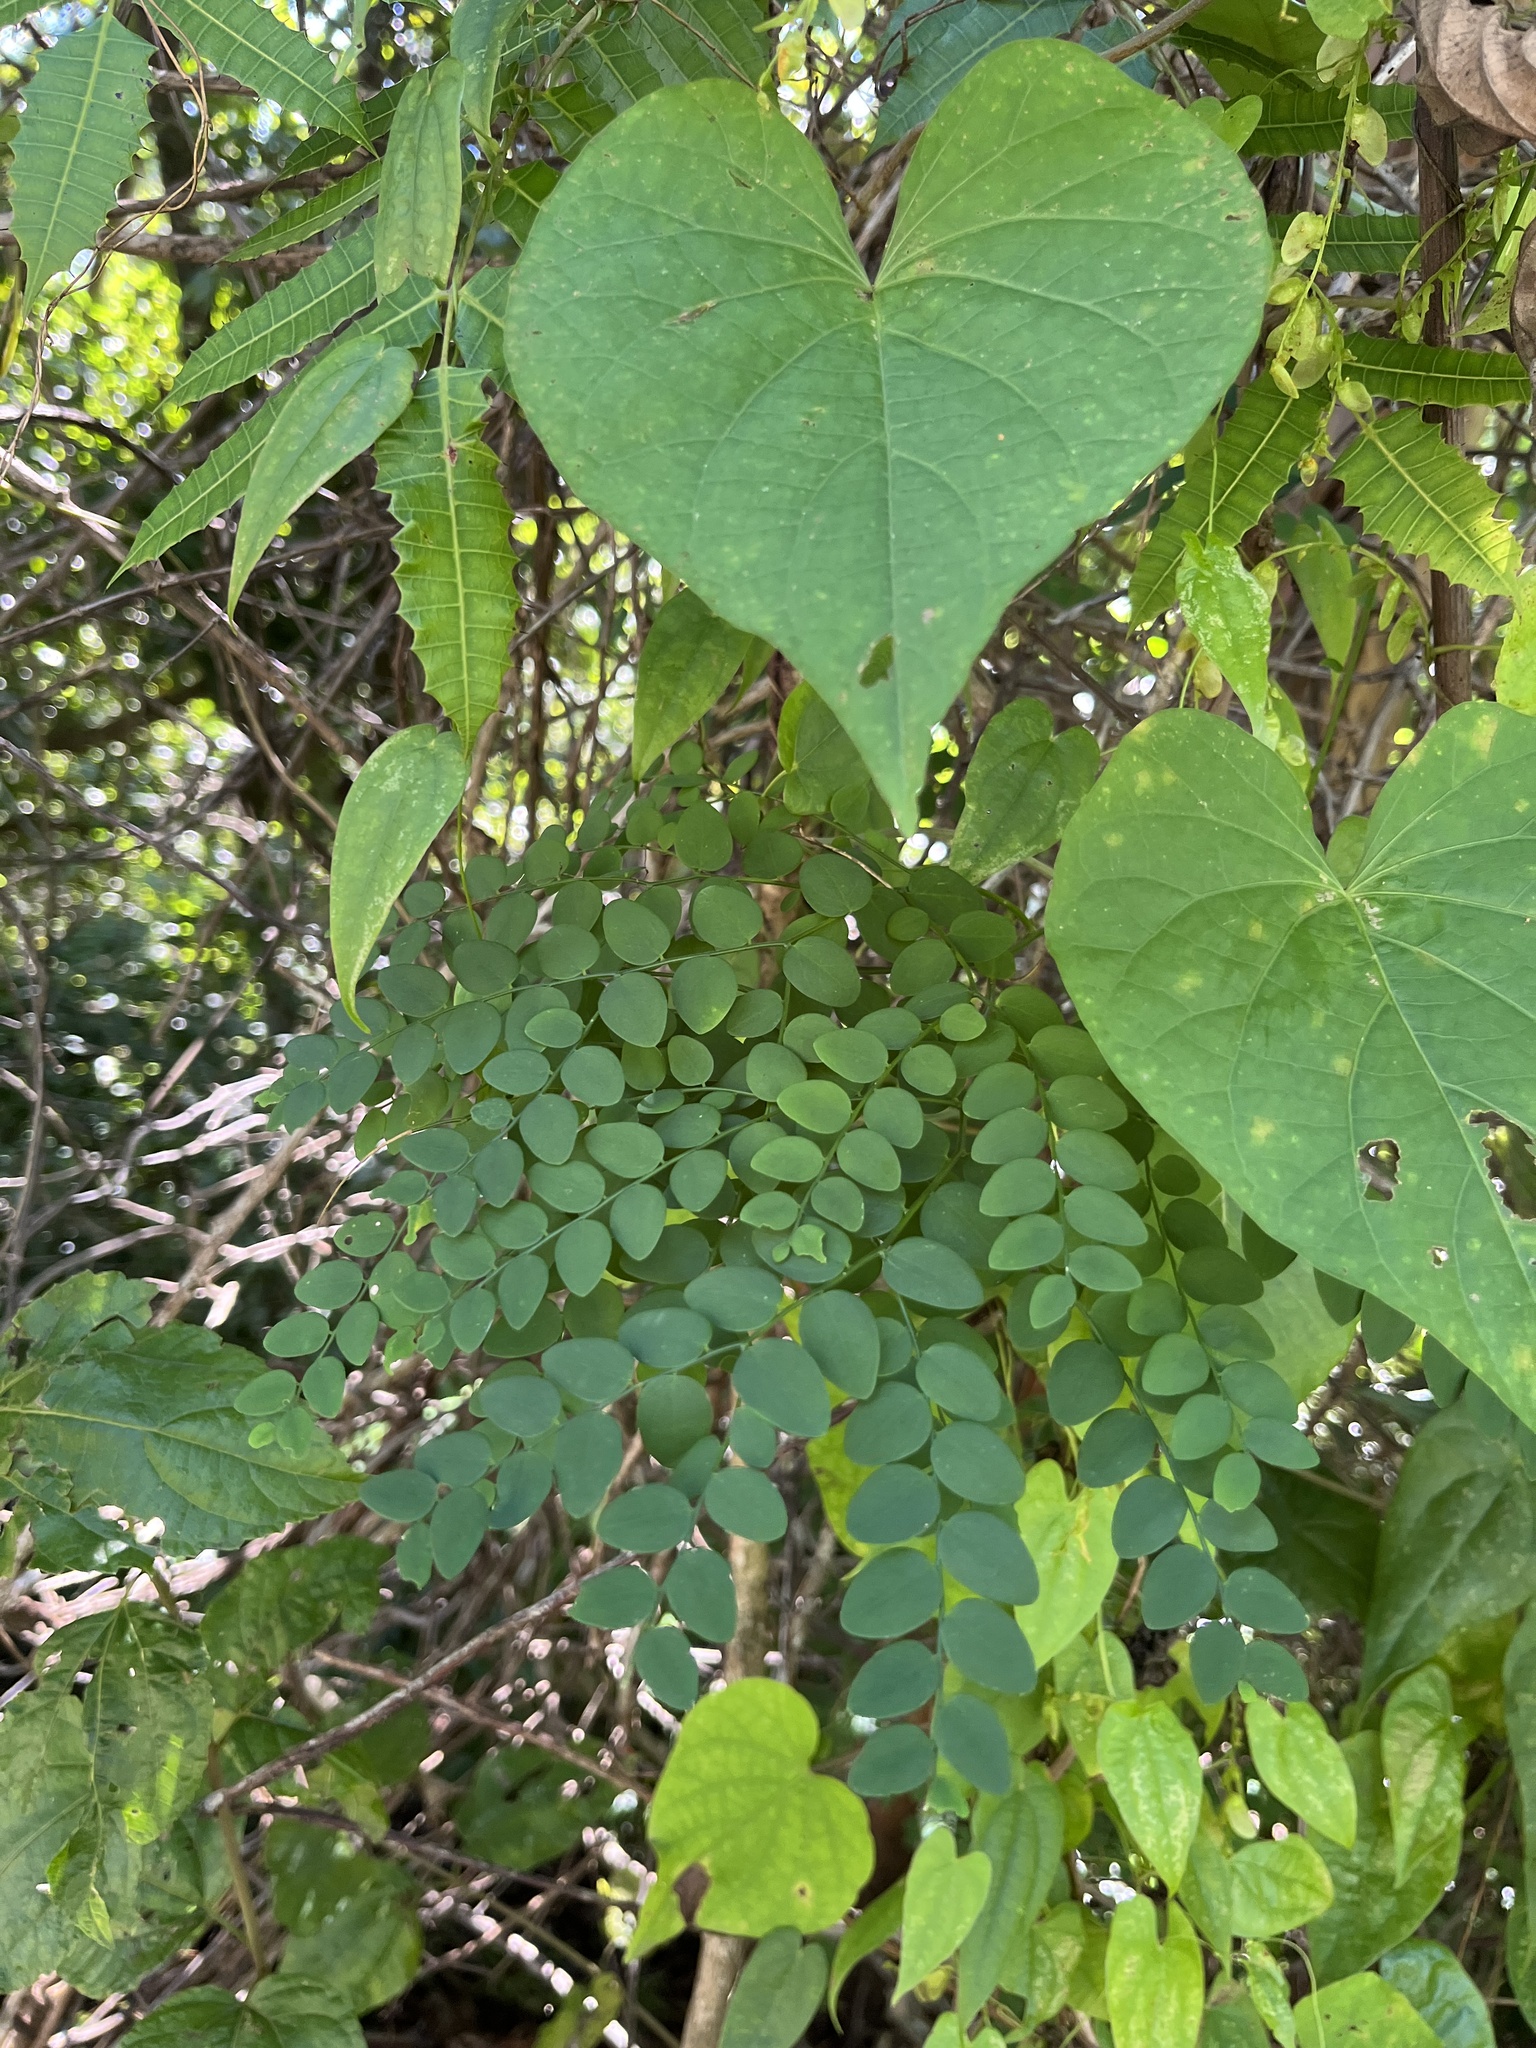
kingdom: Plantae
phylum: Tracheophyta
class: Magnoliopsida
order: Fabales
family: Polygalaceae
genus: Securidaca
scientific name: Securidaca virgata
